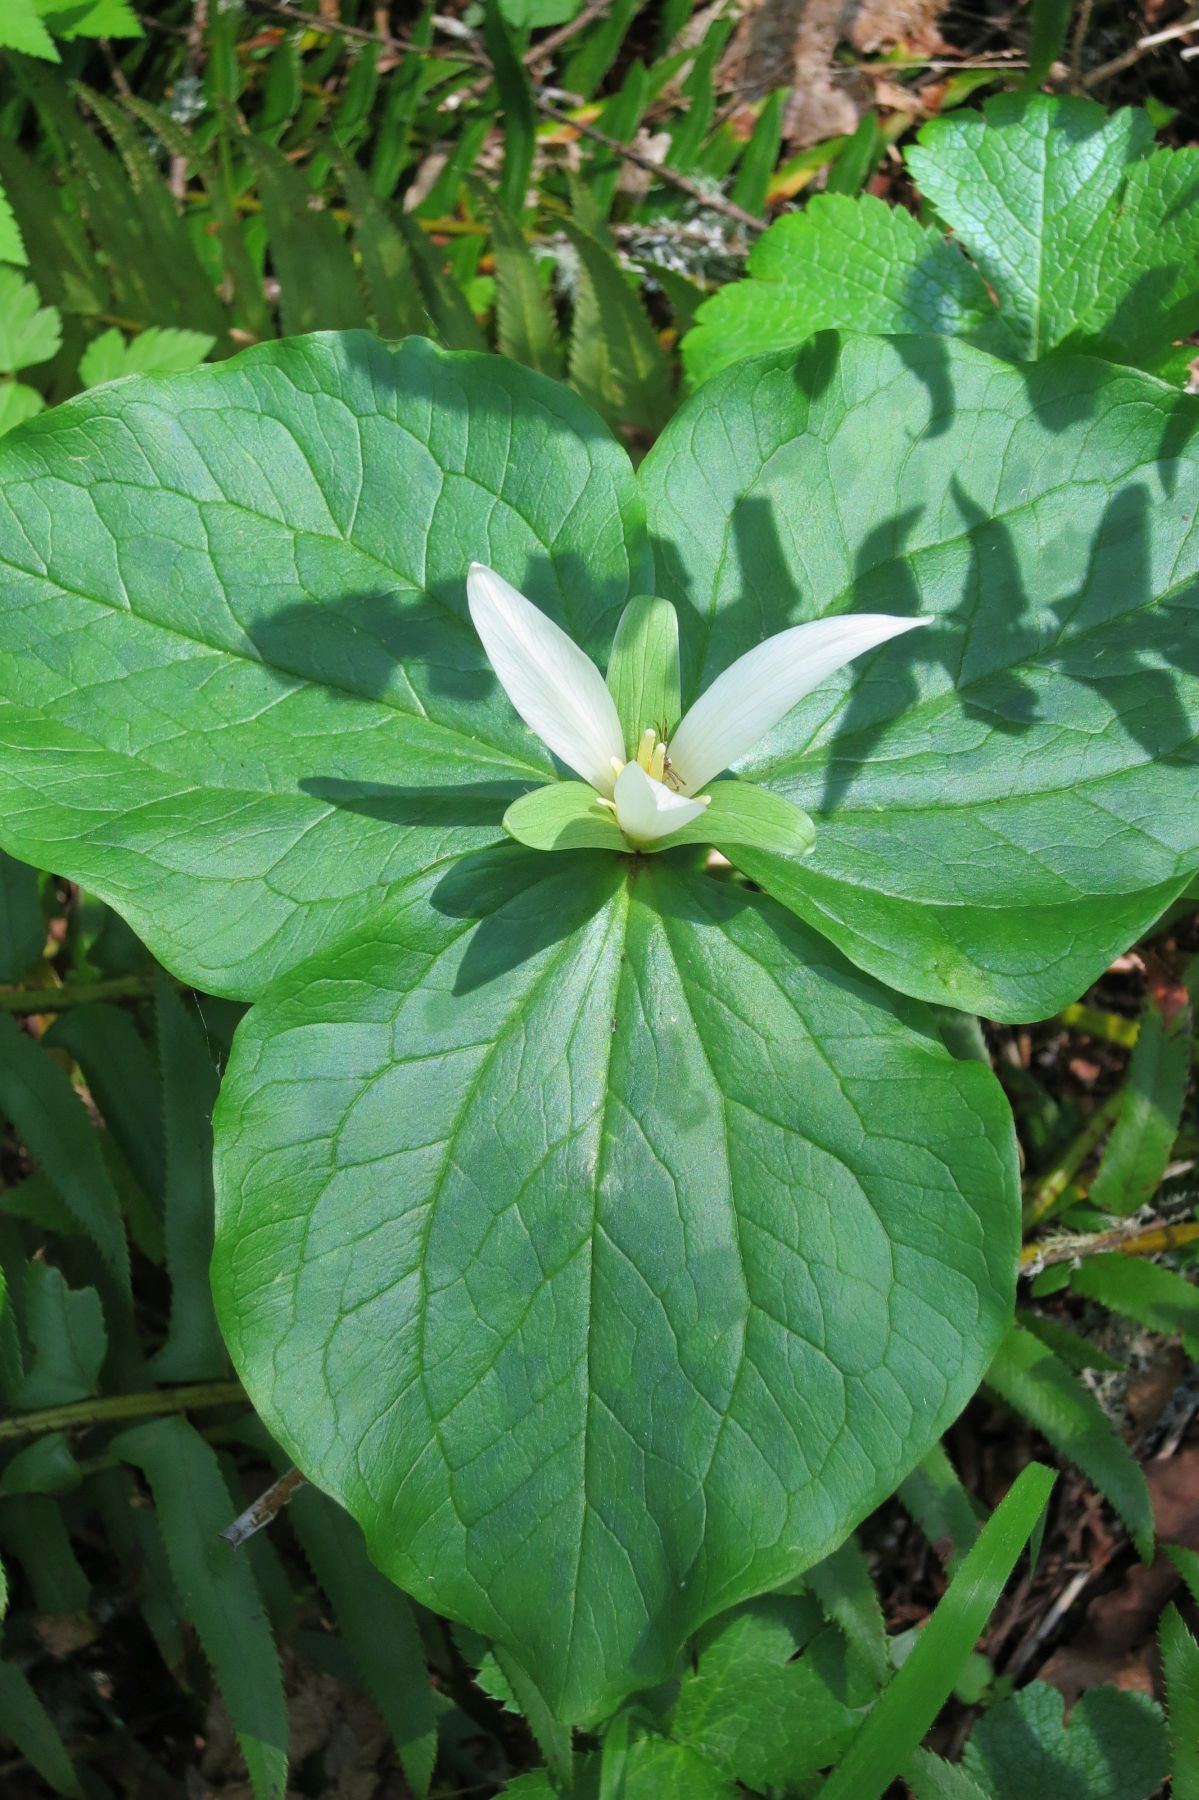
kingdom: Plantae
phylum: Tracheophyta
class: Liliopsida
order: Liliales
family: Melanthiaceae
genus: Trillium
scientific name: Trillium albidum
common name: Freeman's trillium
